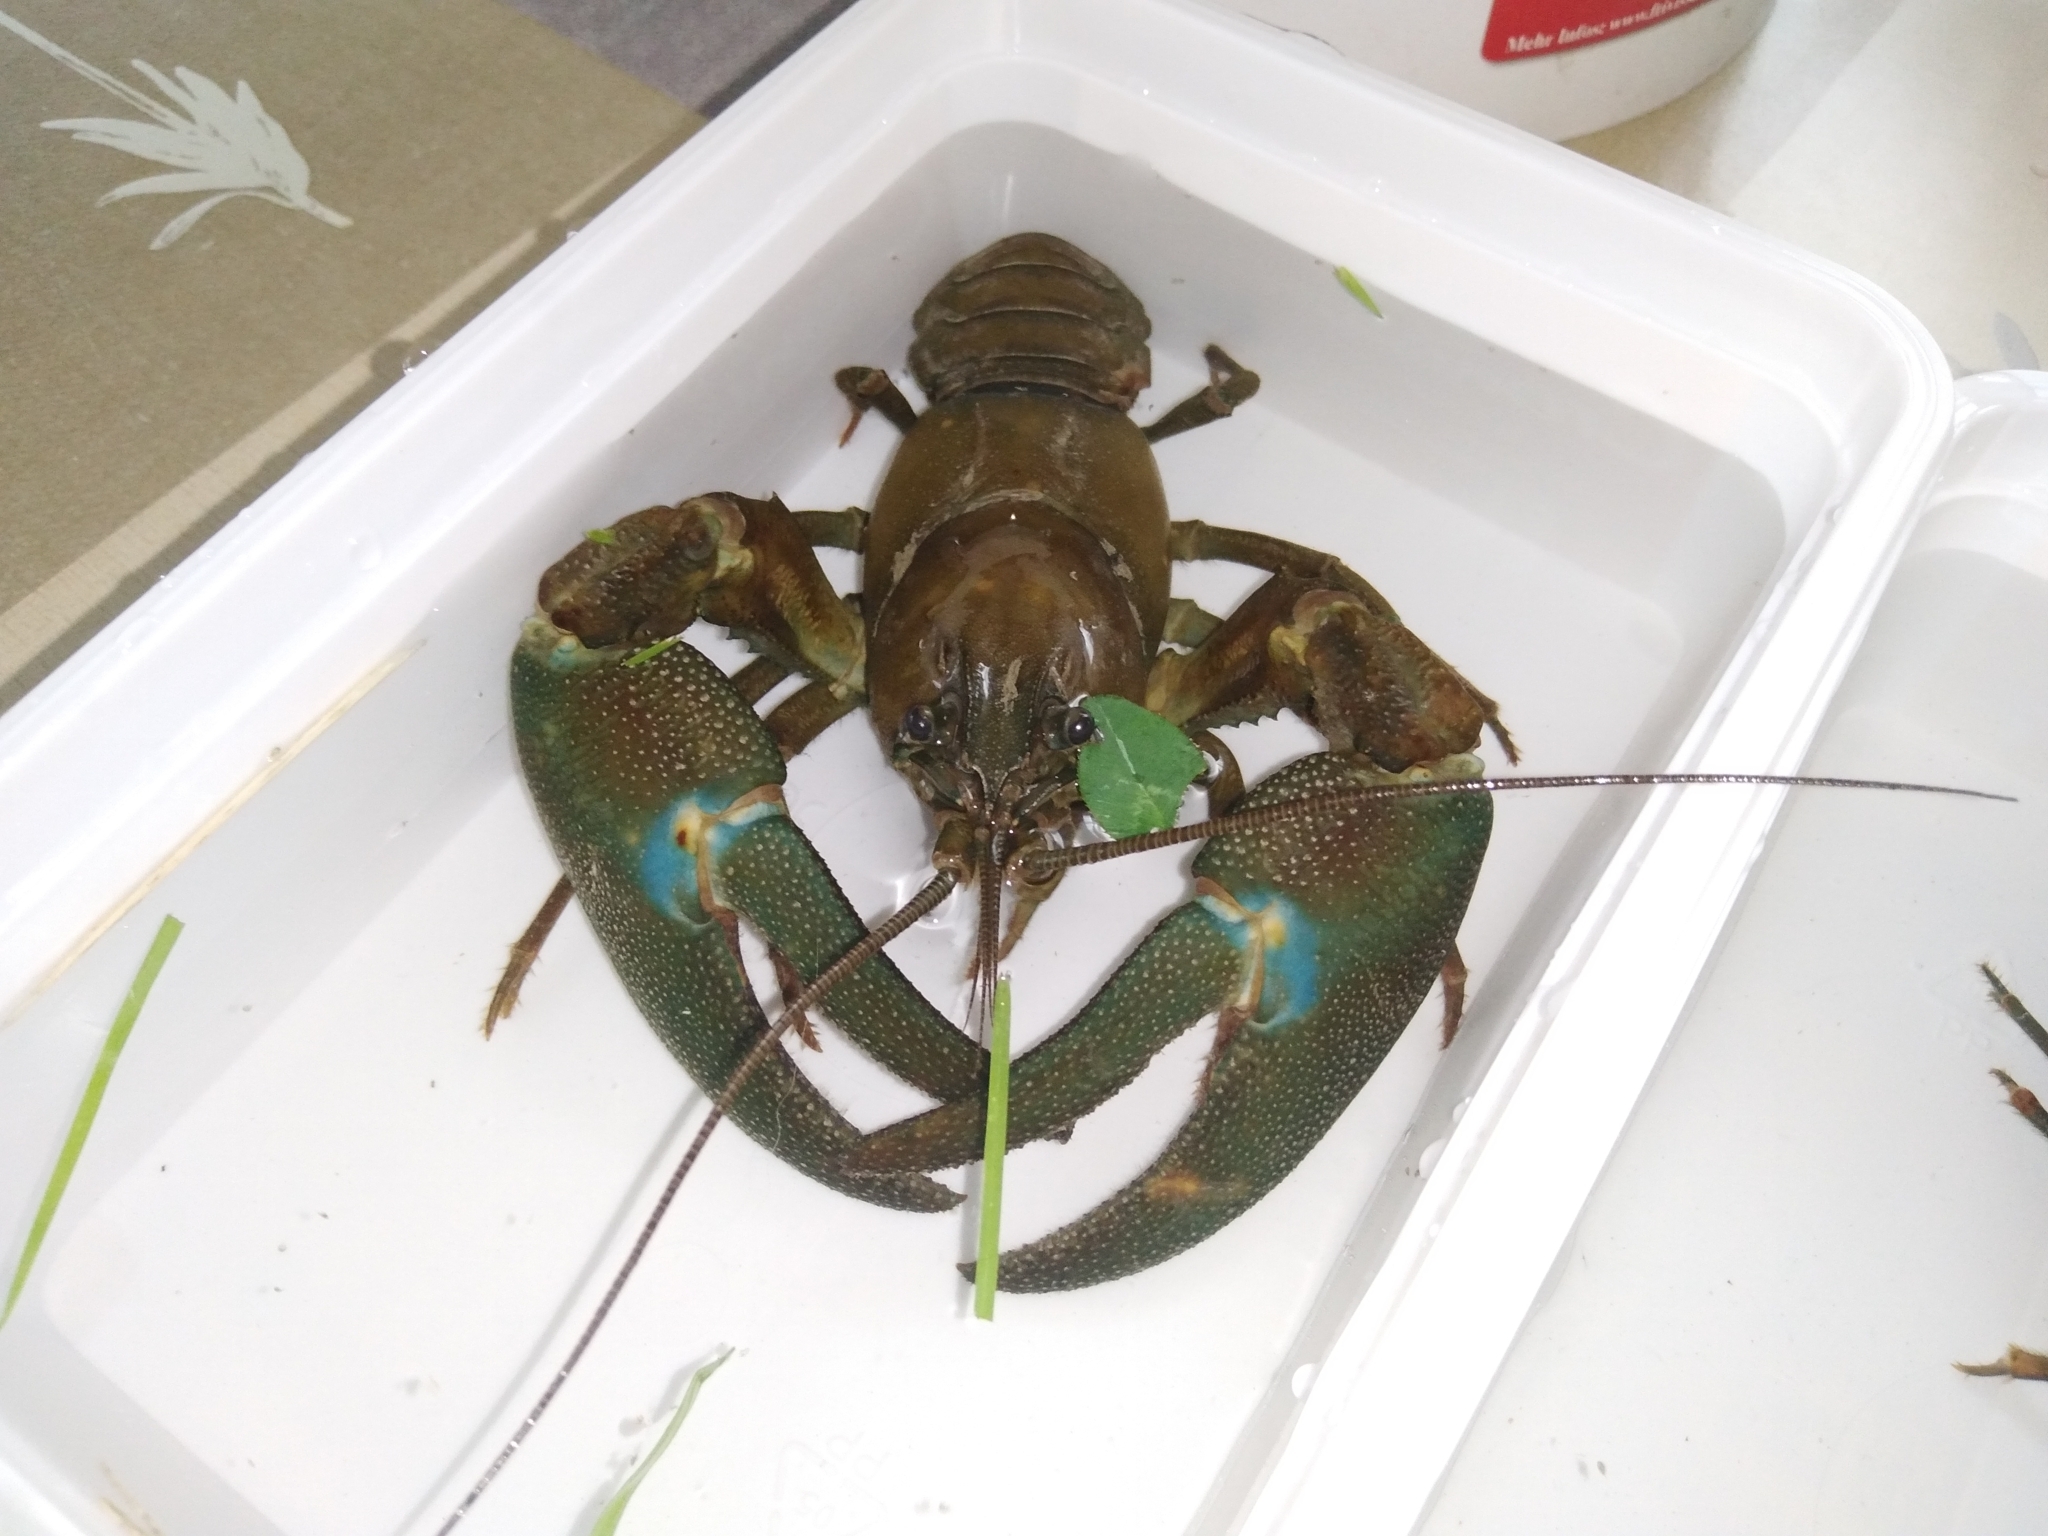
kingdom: Animalia
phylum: Arthropoda
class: Malacostraca
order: Decapoda
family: Astacidae
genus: Pacifastacus
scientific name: Pacifastacus leniusculus
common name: Signal crayfish
